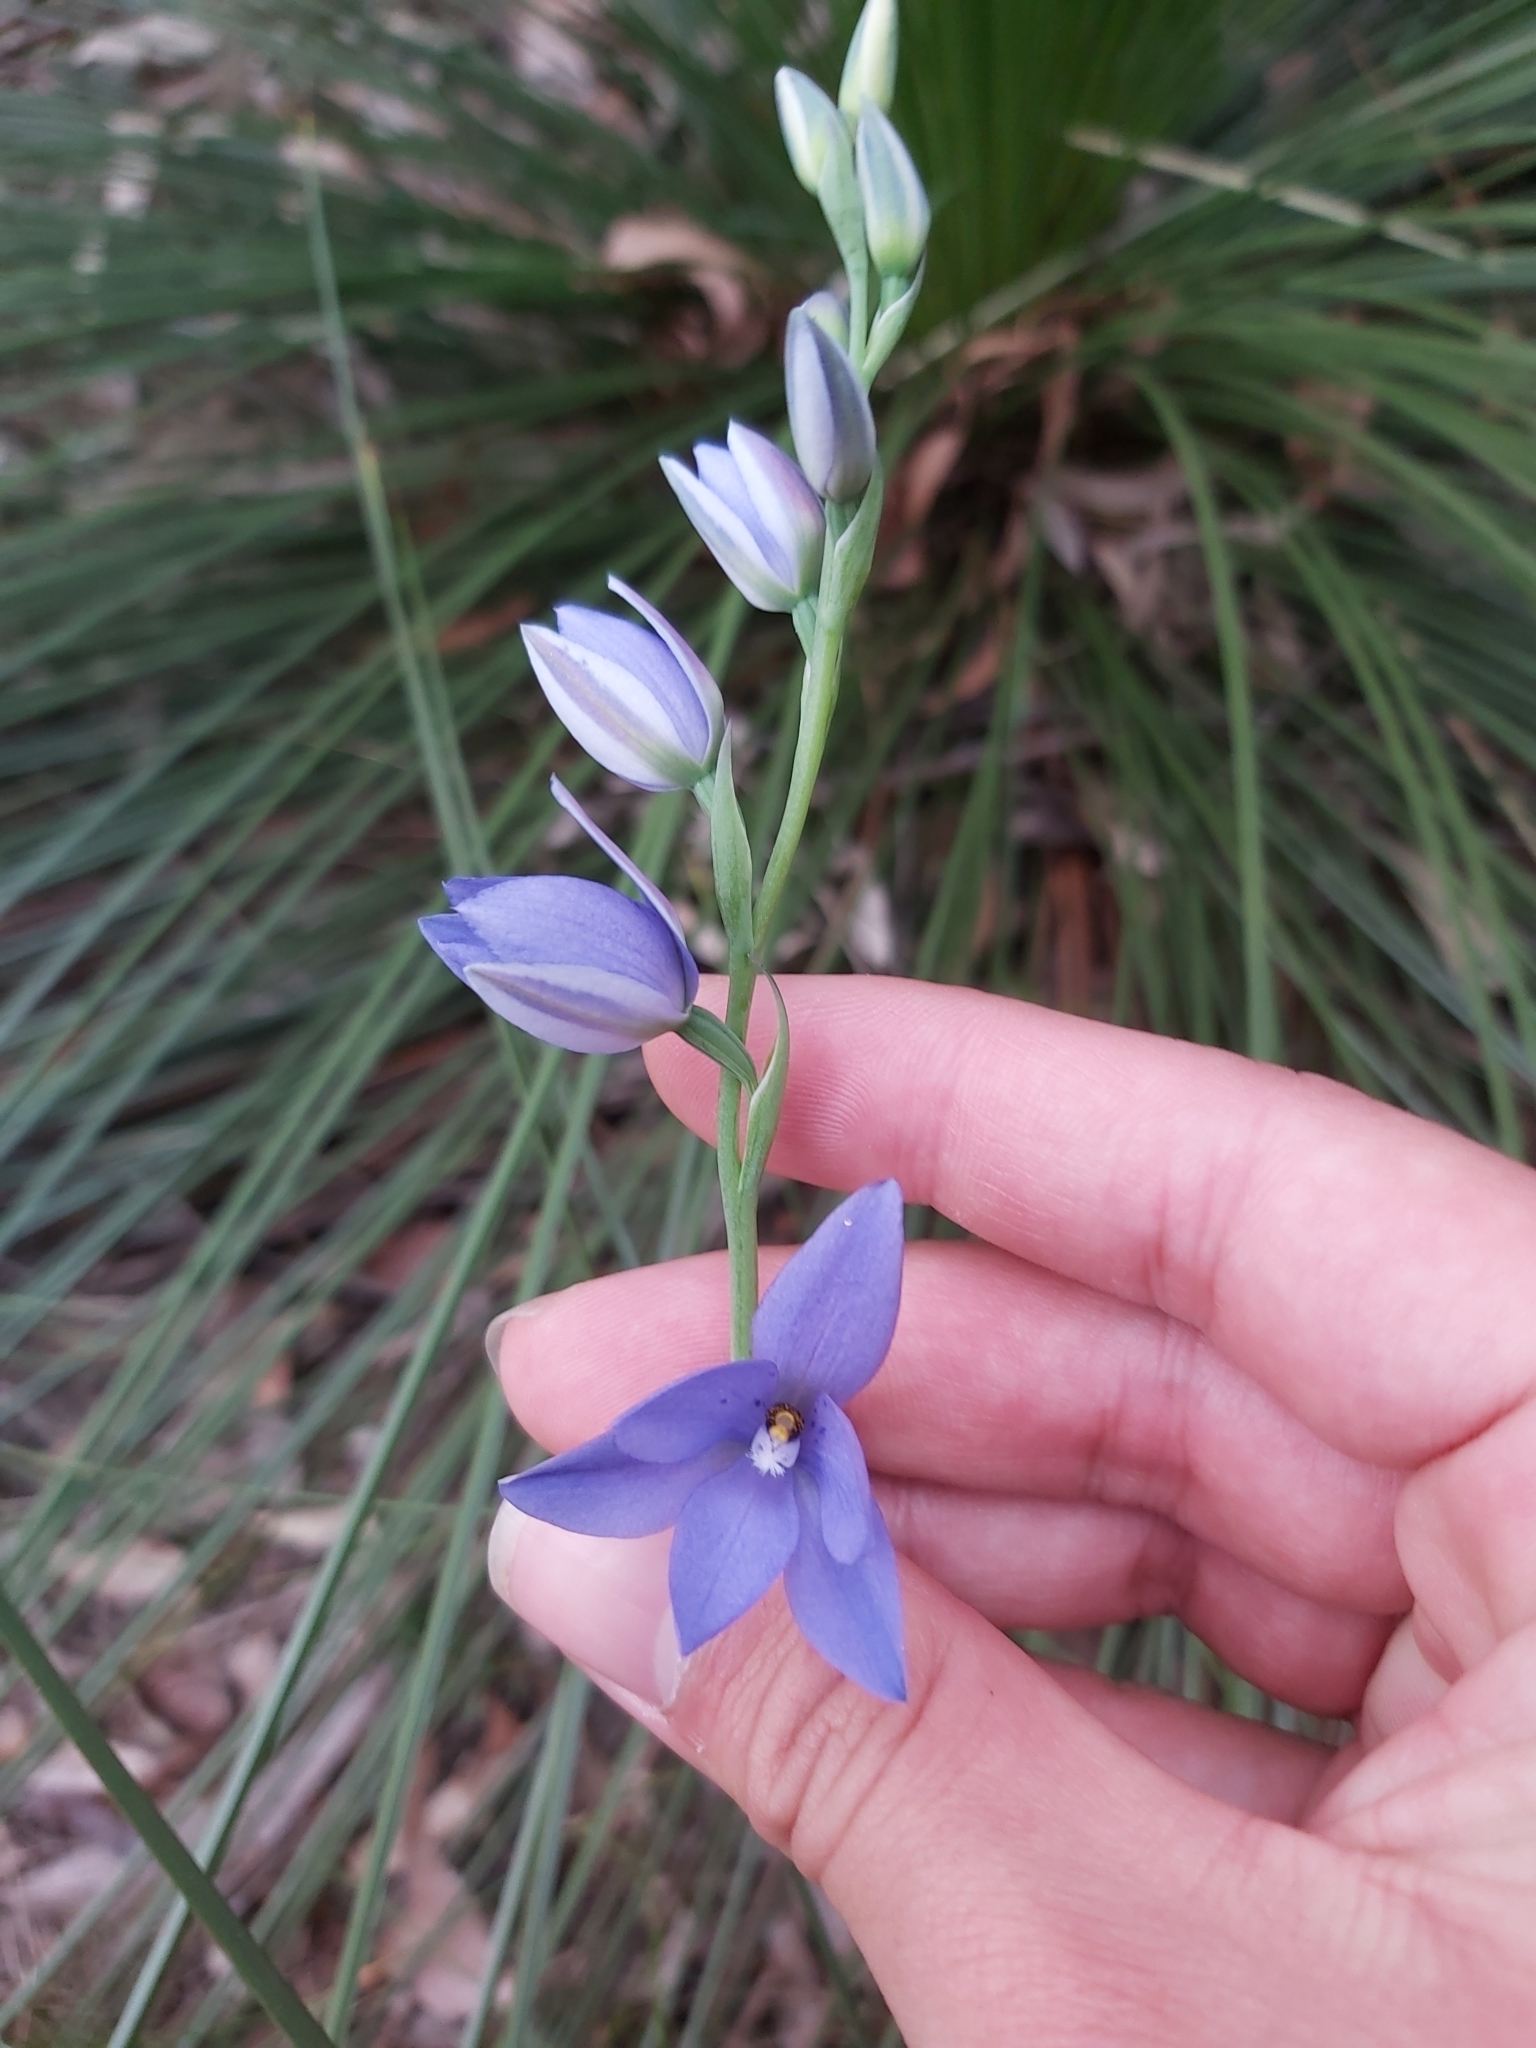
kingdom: Plantae
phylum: Tracheophyta
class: Liliopsida
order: Asparagales
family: Orchidaceae
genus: Thelymitra
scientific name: Thelymitra ixioides
